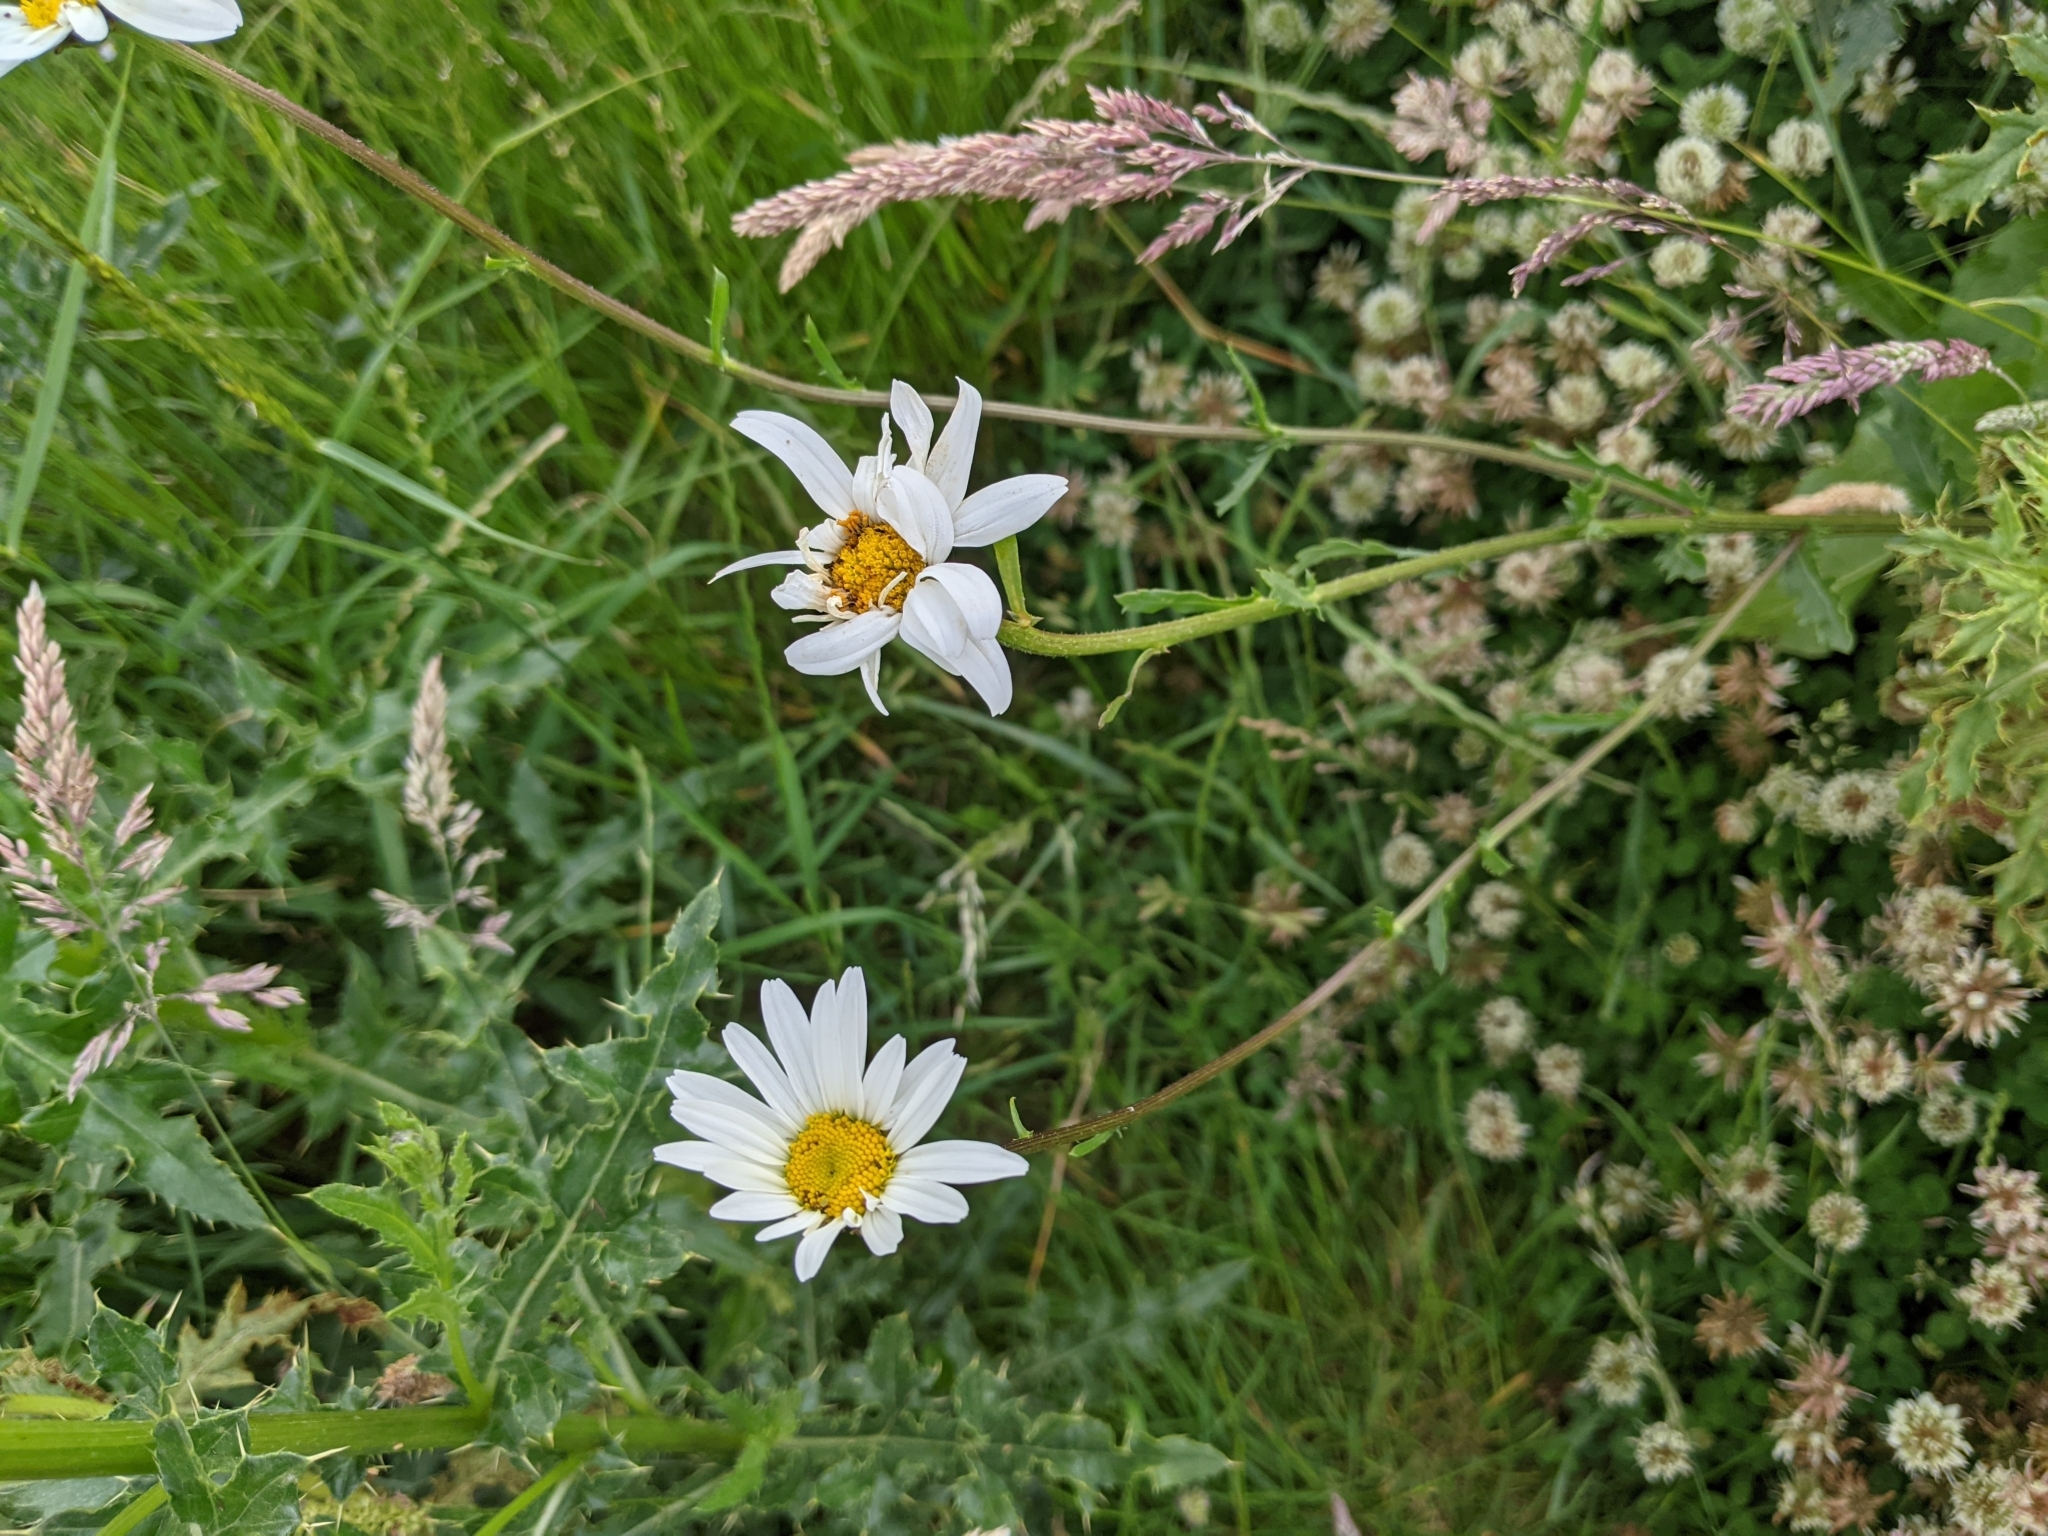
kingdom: Plantae
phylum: Tracheophyta
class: Magnoliopsida
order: Asterales
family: Asteraceae
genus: Leucanthemum
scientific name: Leucanthemum vulgare
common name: Oxeye daisy
